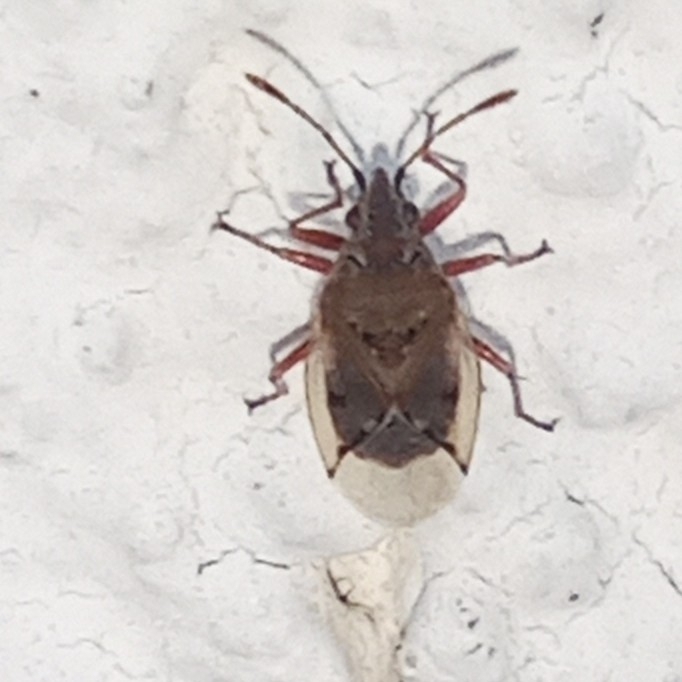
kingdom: Animalia
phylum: Arthropoda
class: Insecta
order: Hemiptera
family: Lygaeidae
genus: Kleidocerys
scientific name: Kleidocerys resedae
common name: Birch catkin bug
